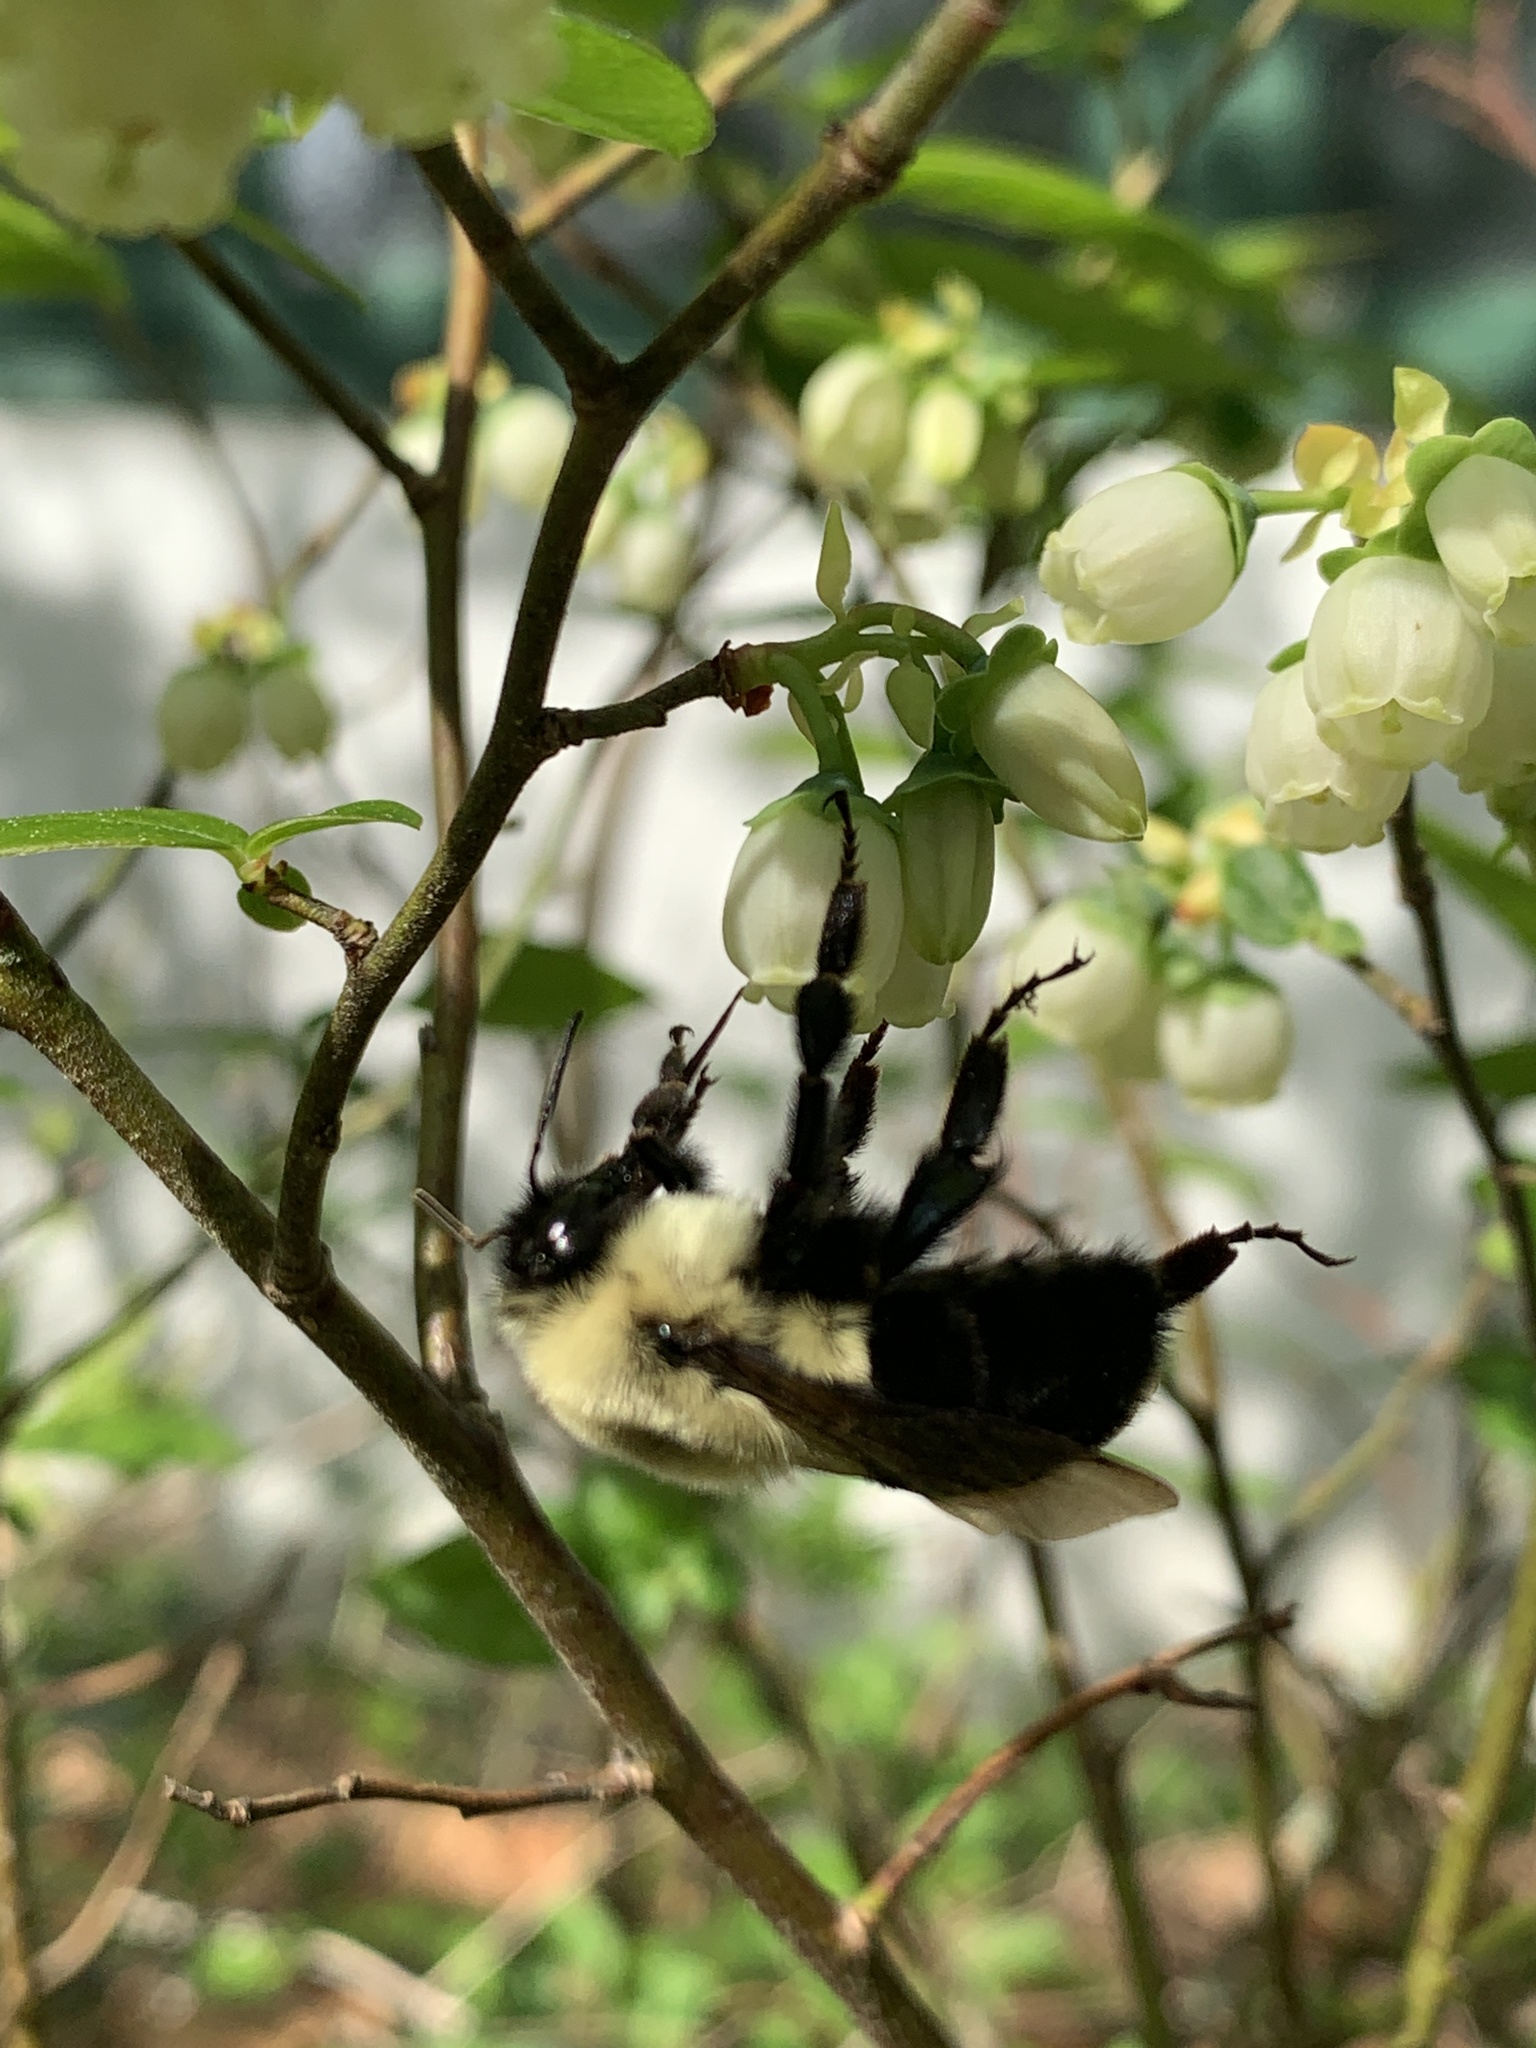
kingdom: Animalia
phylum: Arthropoda
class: Insecta
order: Hymenoptera
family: Apidae
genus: Bombus
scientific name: Bombus impatiens
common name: Common eastern bumble bee
